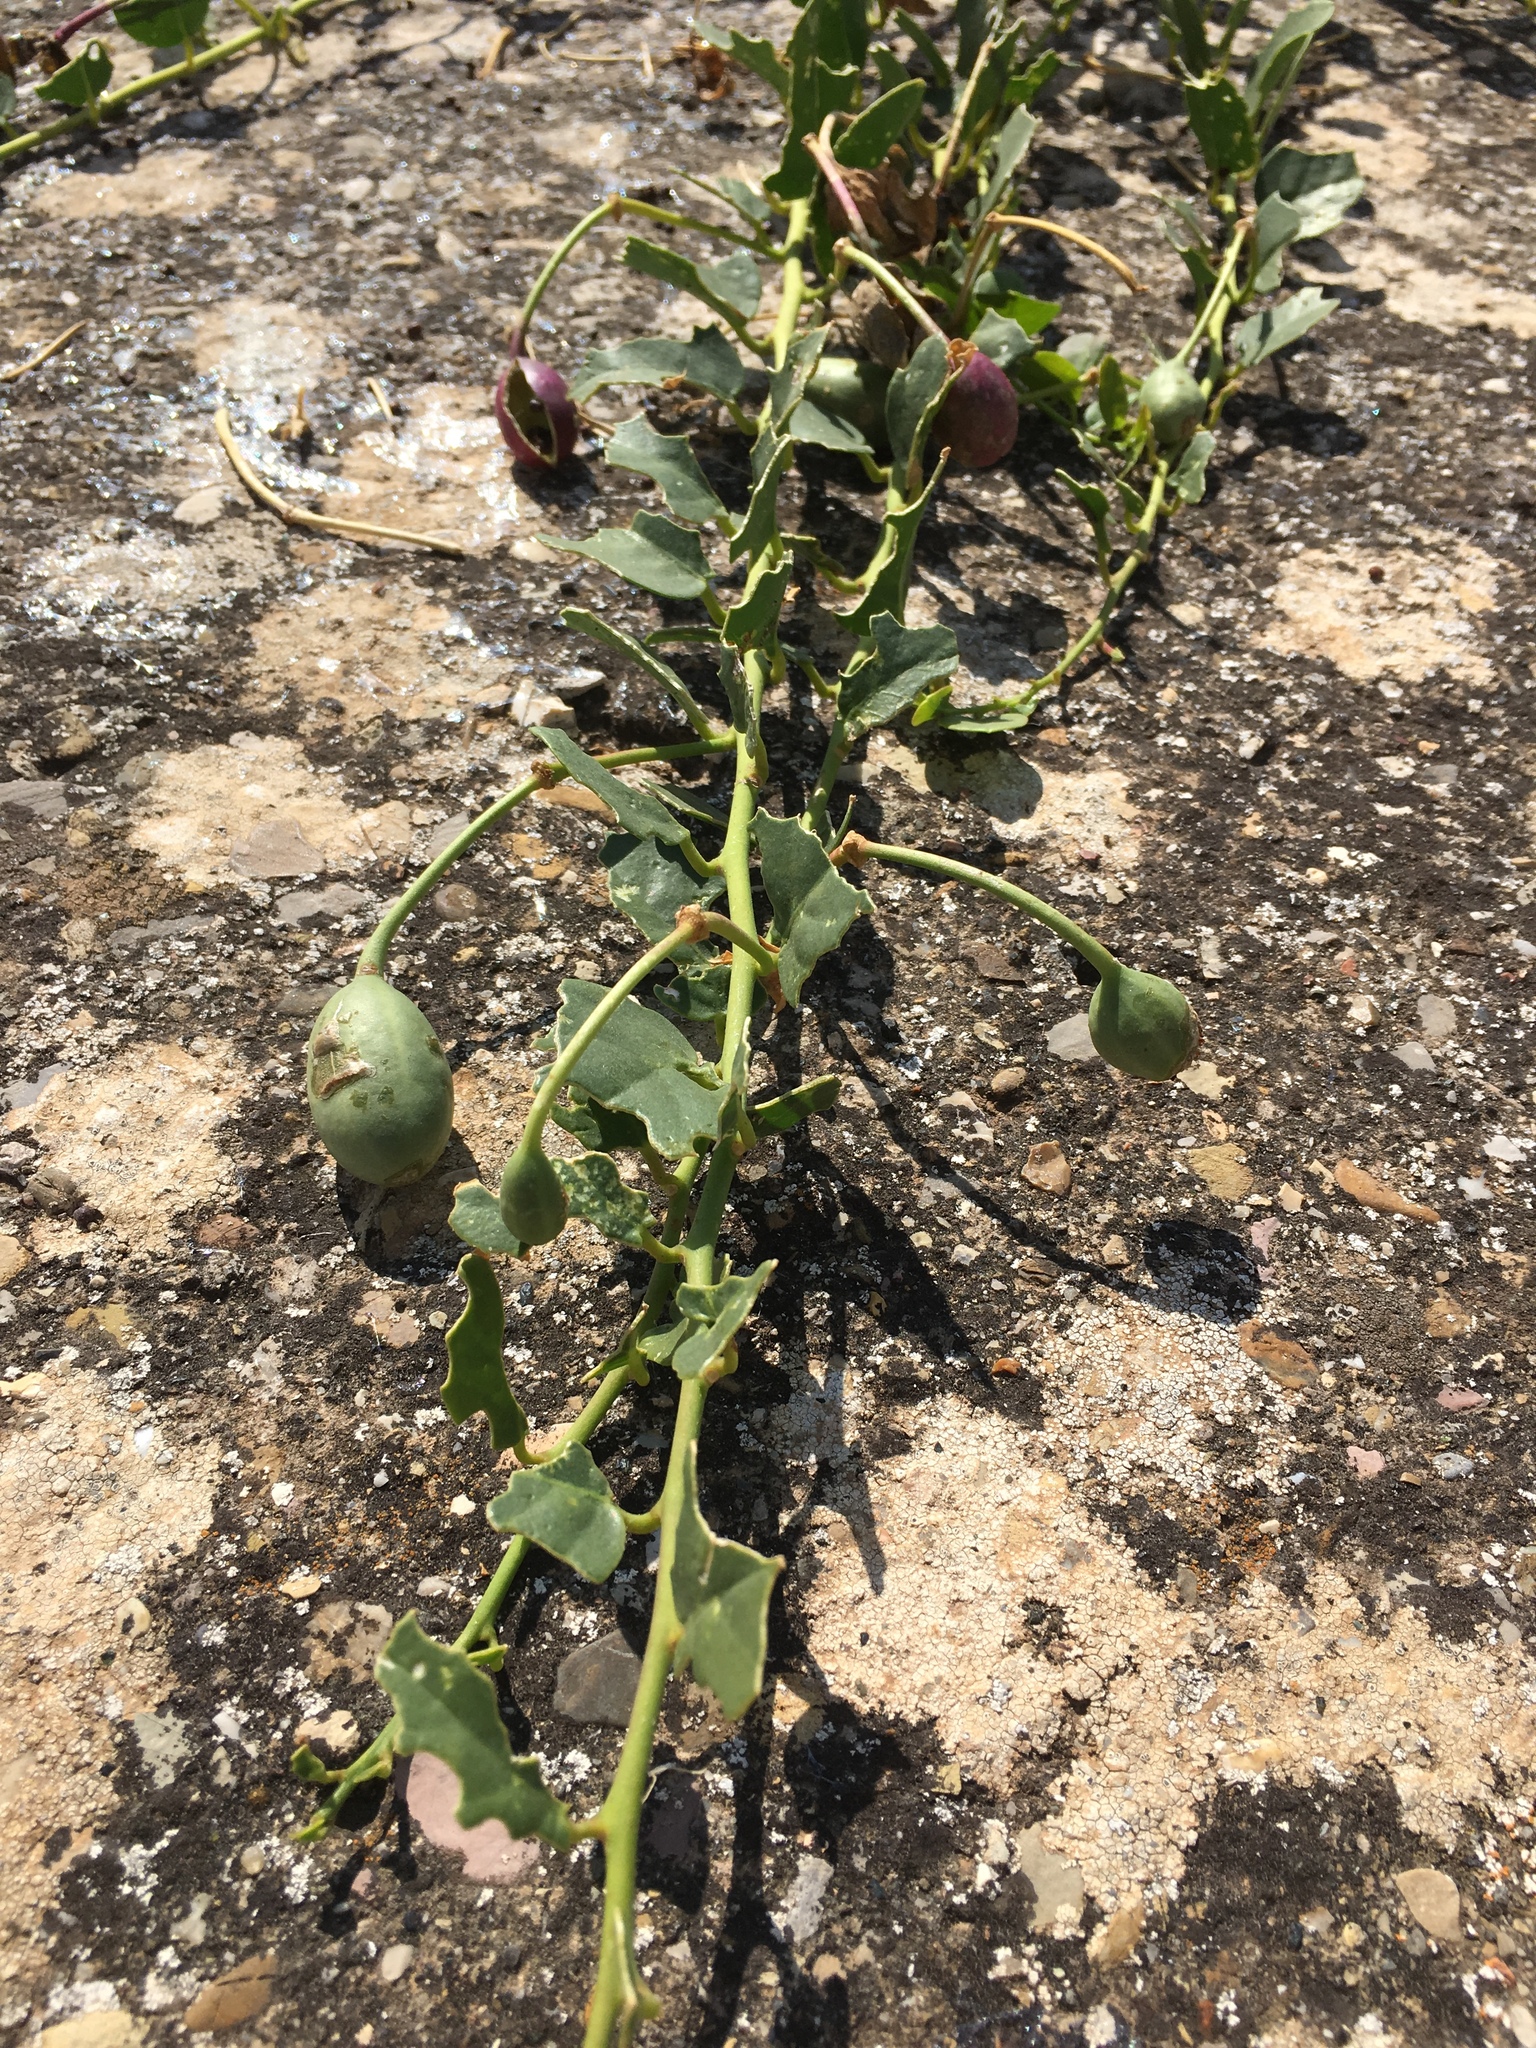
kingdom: Plantae
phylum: Tracheophyta
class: Magnoliopsida
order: Brassicales
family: Capparaceae
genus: Capparis
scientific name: Capparis spinosa
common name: Caper
